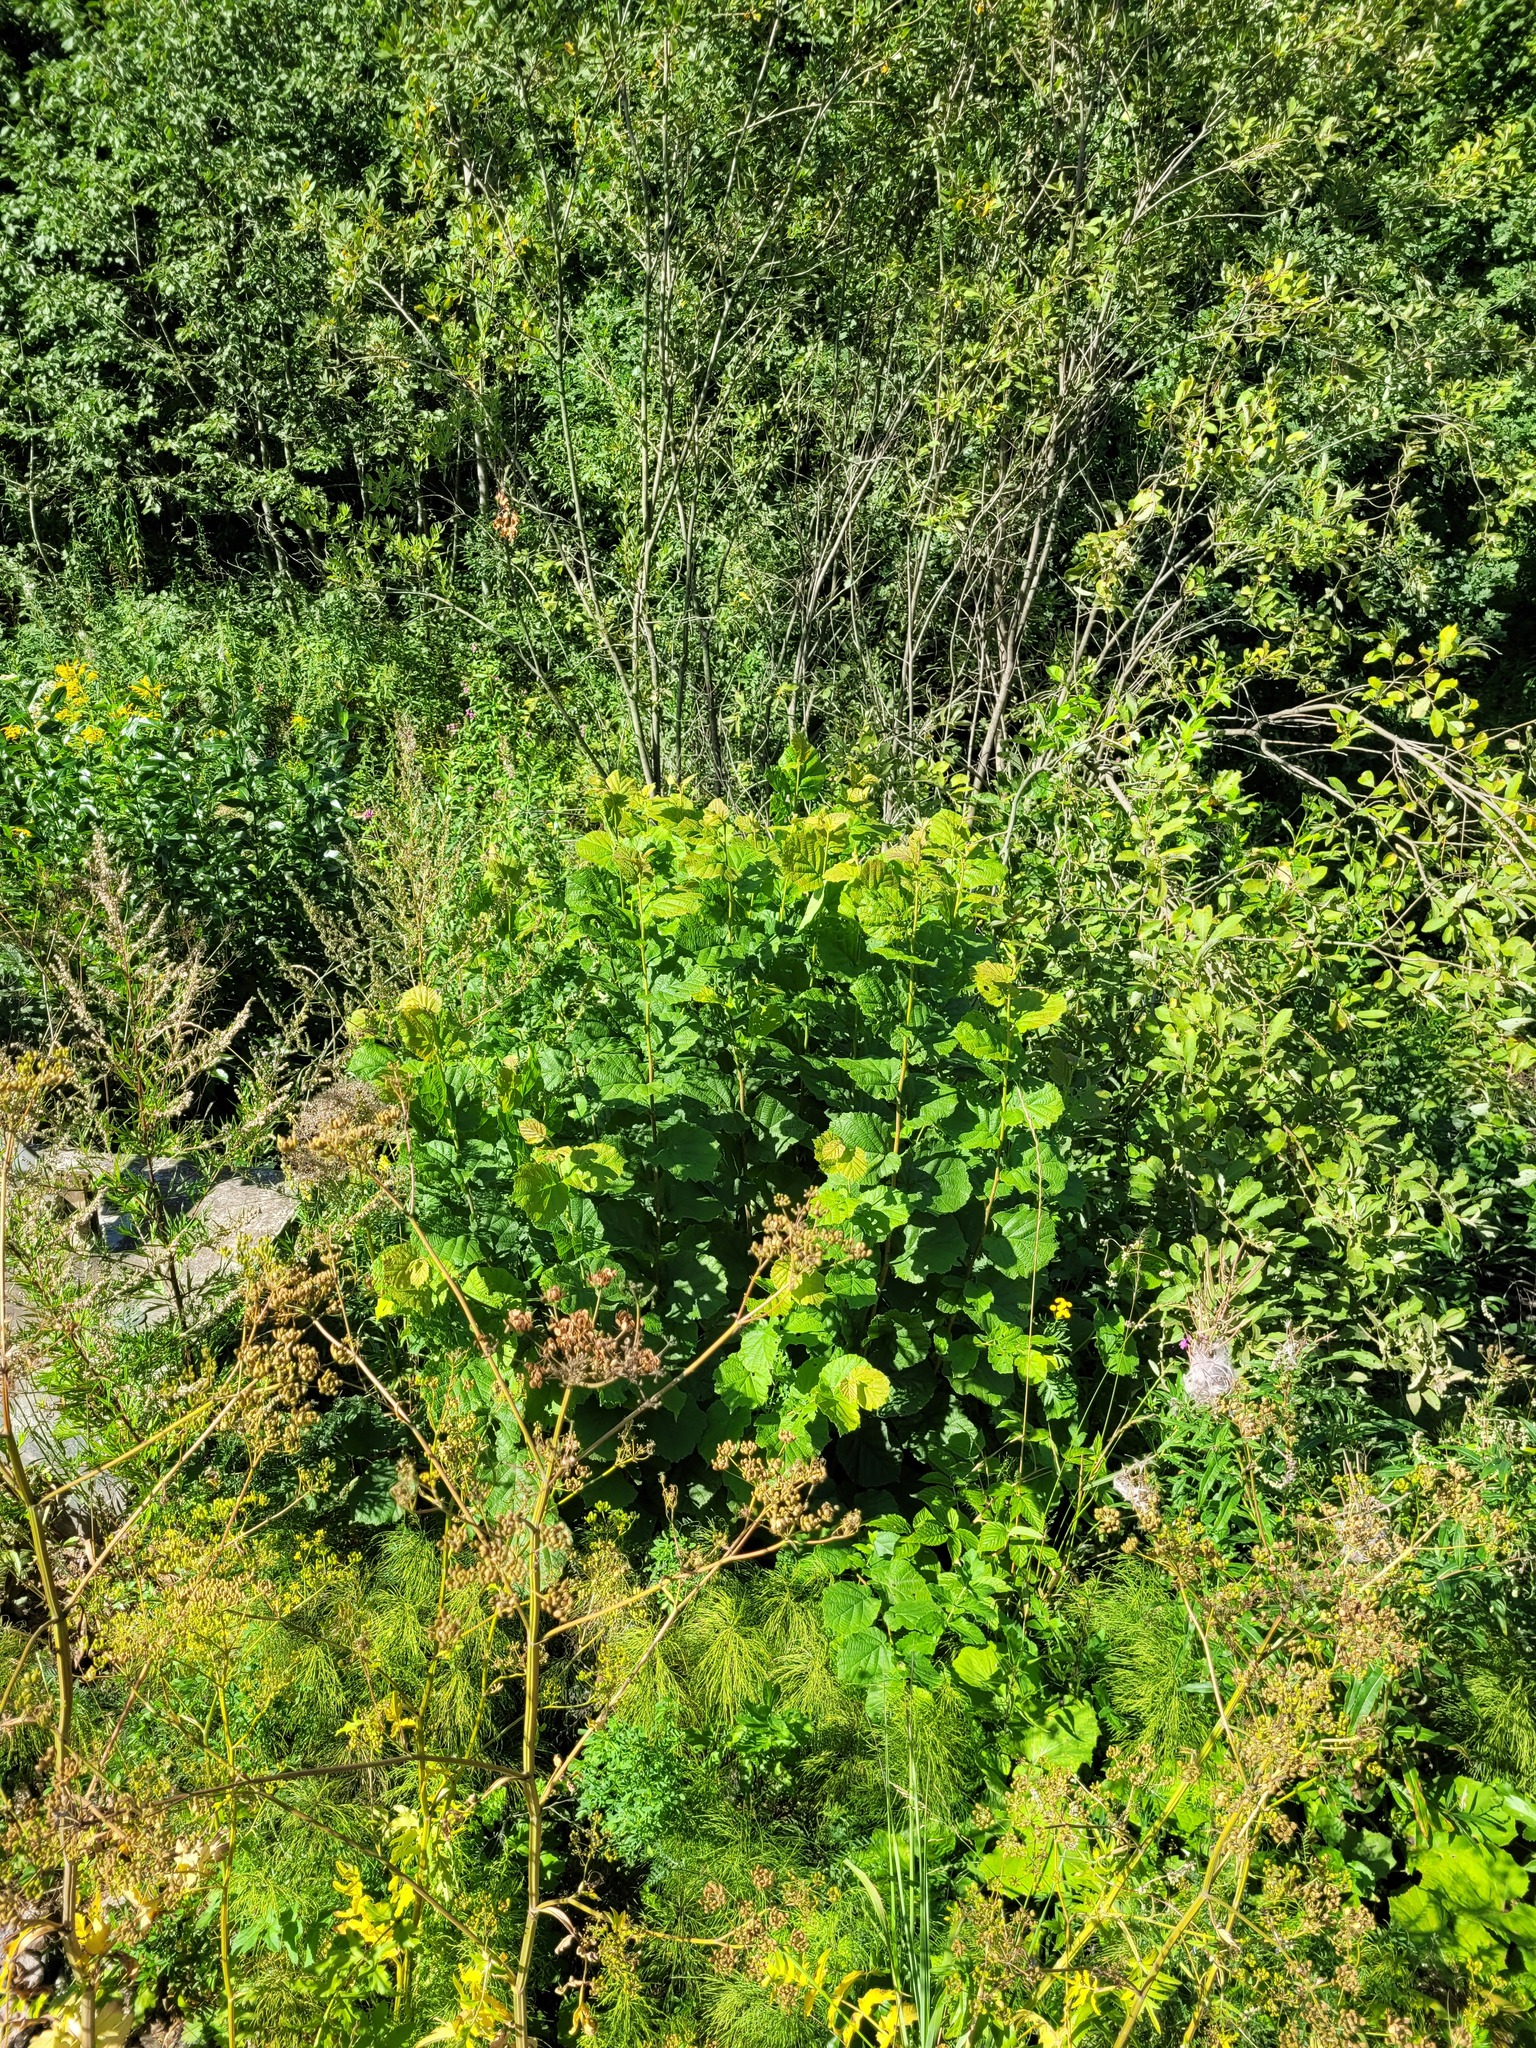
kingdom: Plantae
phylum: Tracheophyta
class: Magnoliopsida
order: Fagales
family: Betulaceae
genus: Corylus
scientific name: Corylus avellana
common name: European hazel
